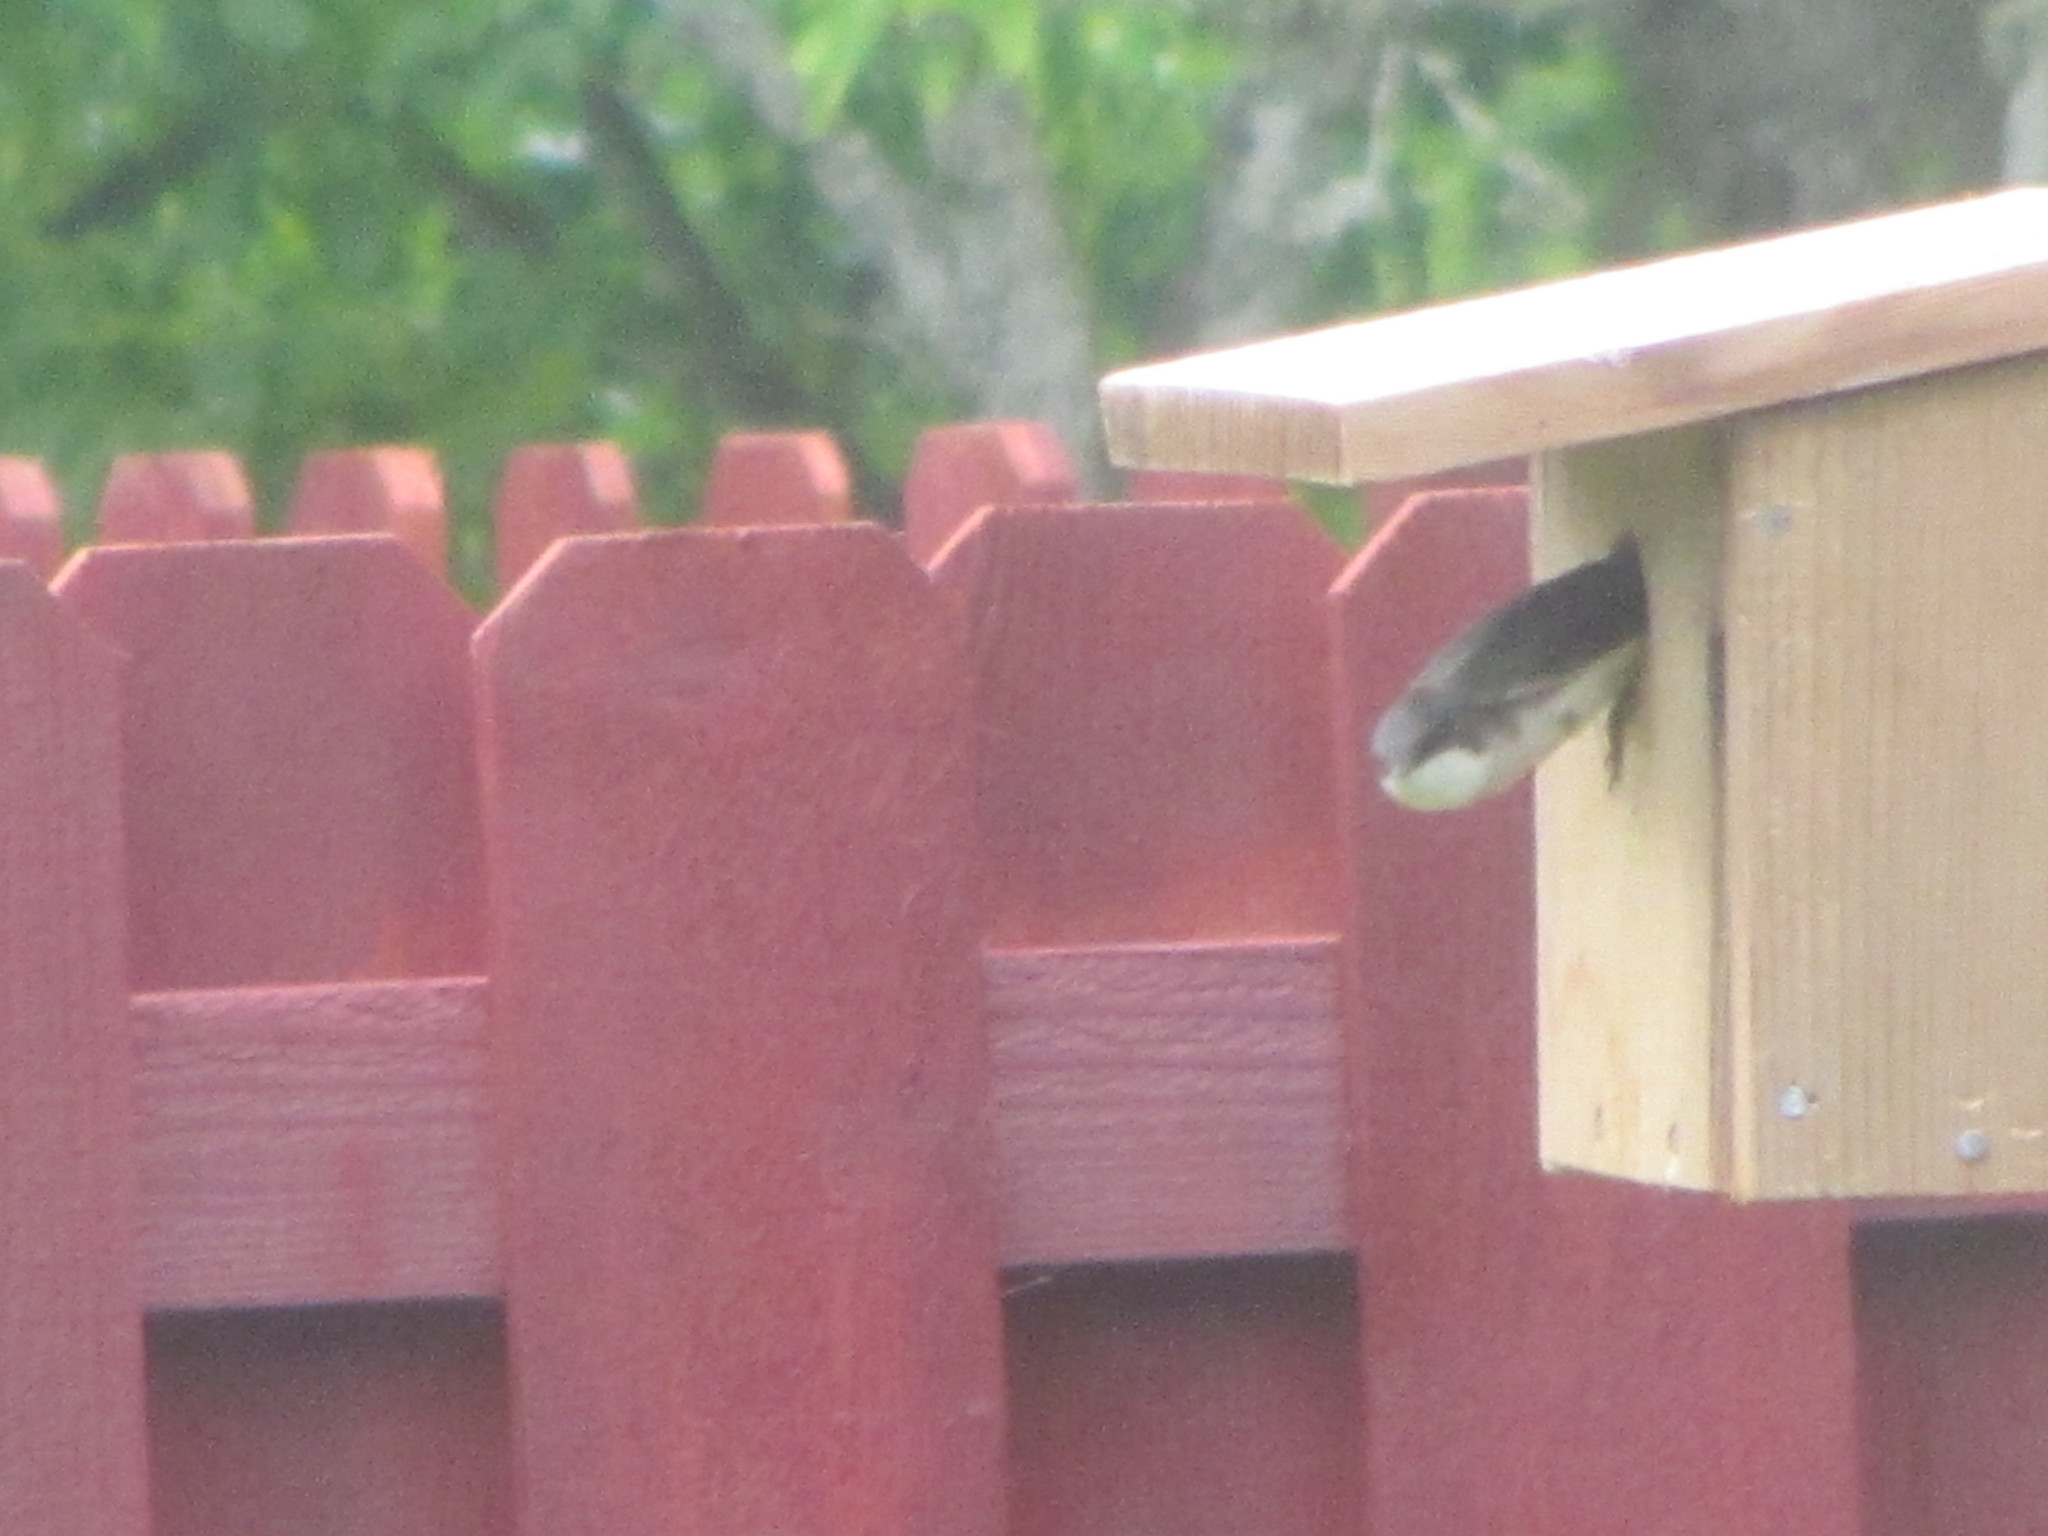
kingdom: Animalia
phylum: Chordata
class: Aves
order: Passeriformes
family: Hirundinidae
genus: Tachycineta
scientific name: Tachycineta bicolor
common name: Tree swallow
